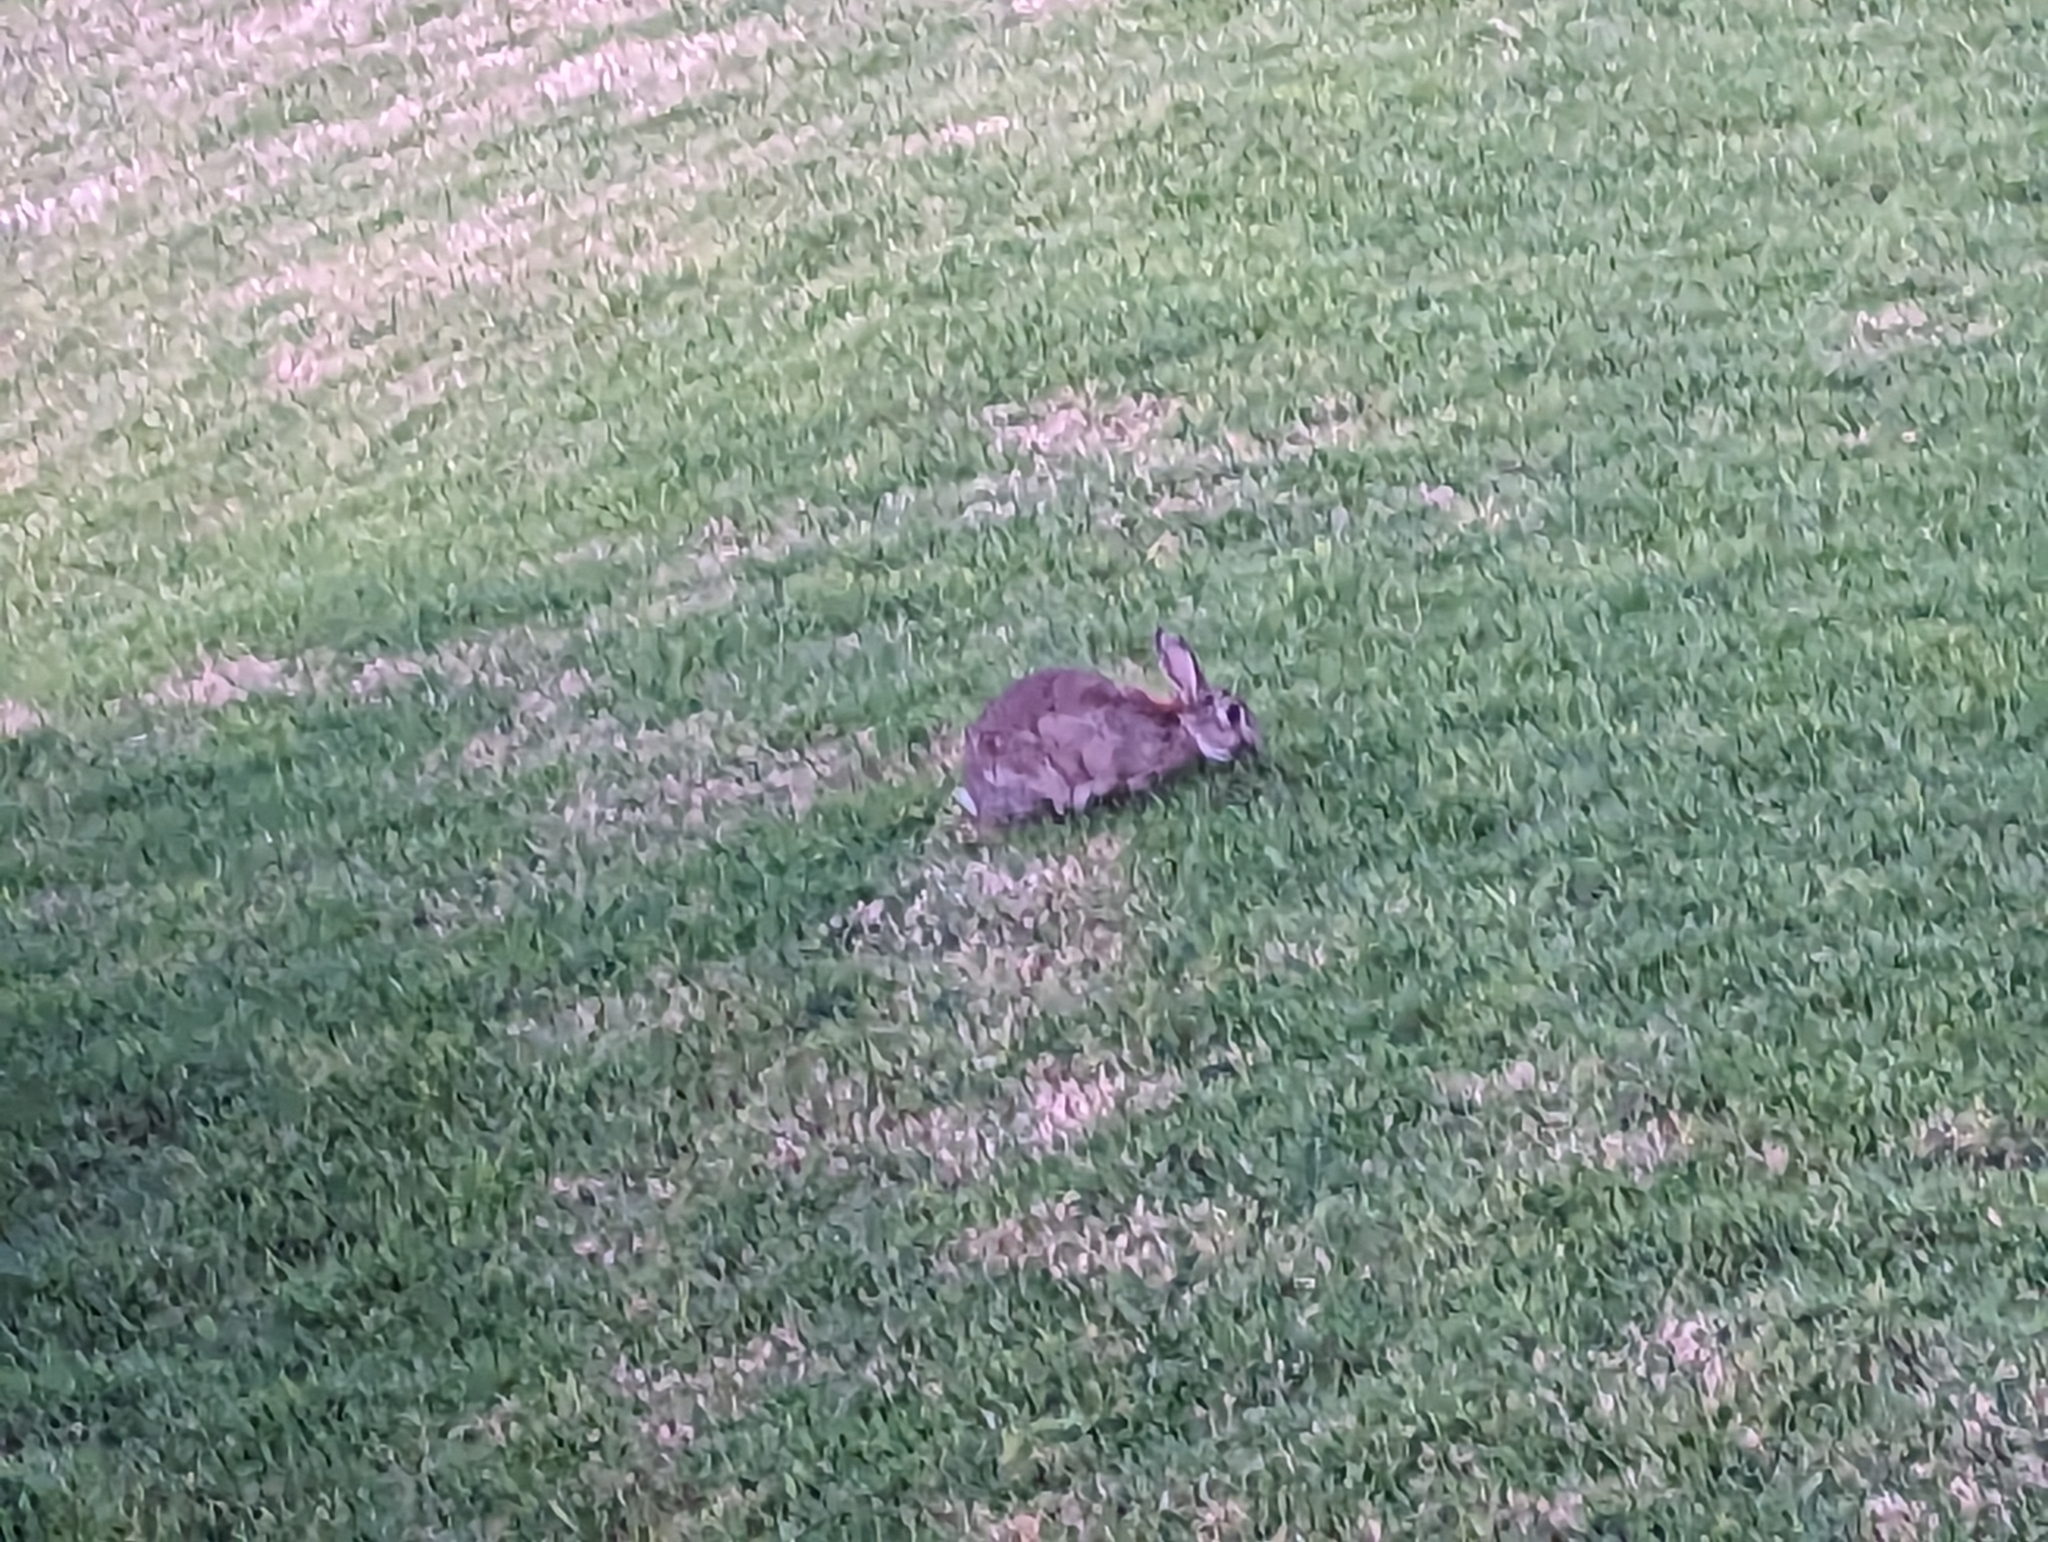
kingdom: Animalia
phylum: Chordata
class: Mammalia
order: Lagomorpha
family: Leporidae
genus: Oryctolagus
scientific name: Oryctolagus cuniculus
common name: European rabbit
